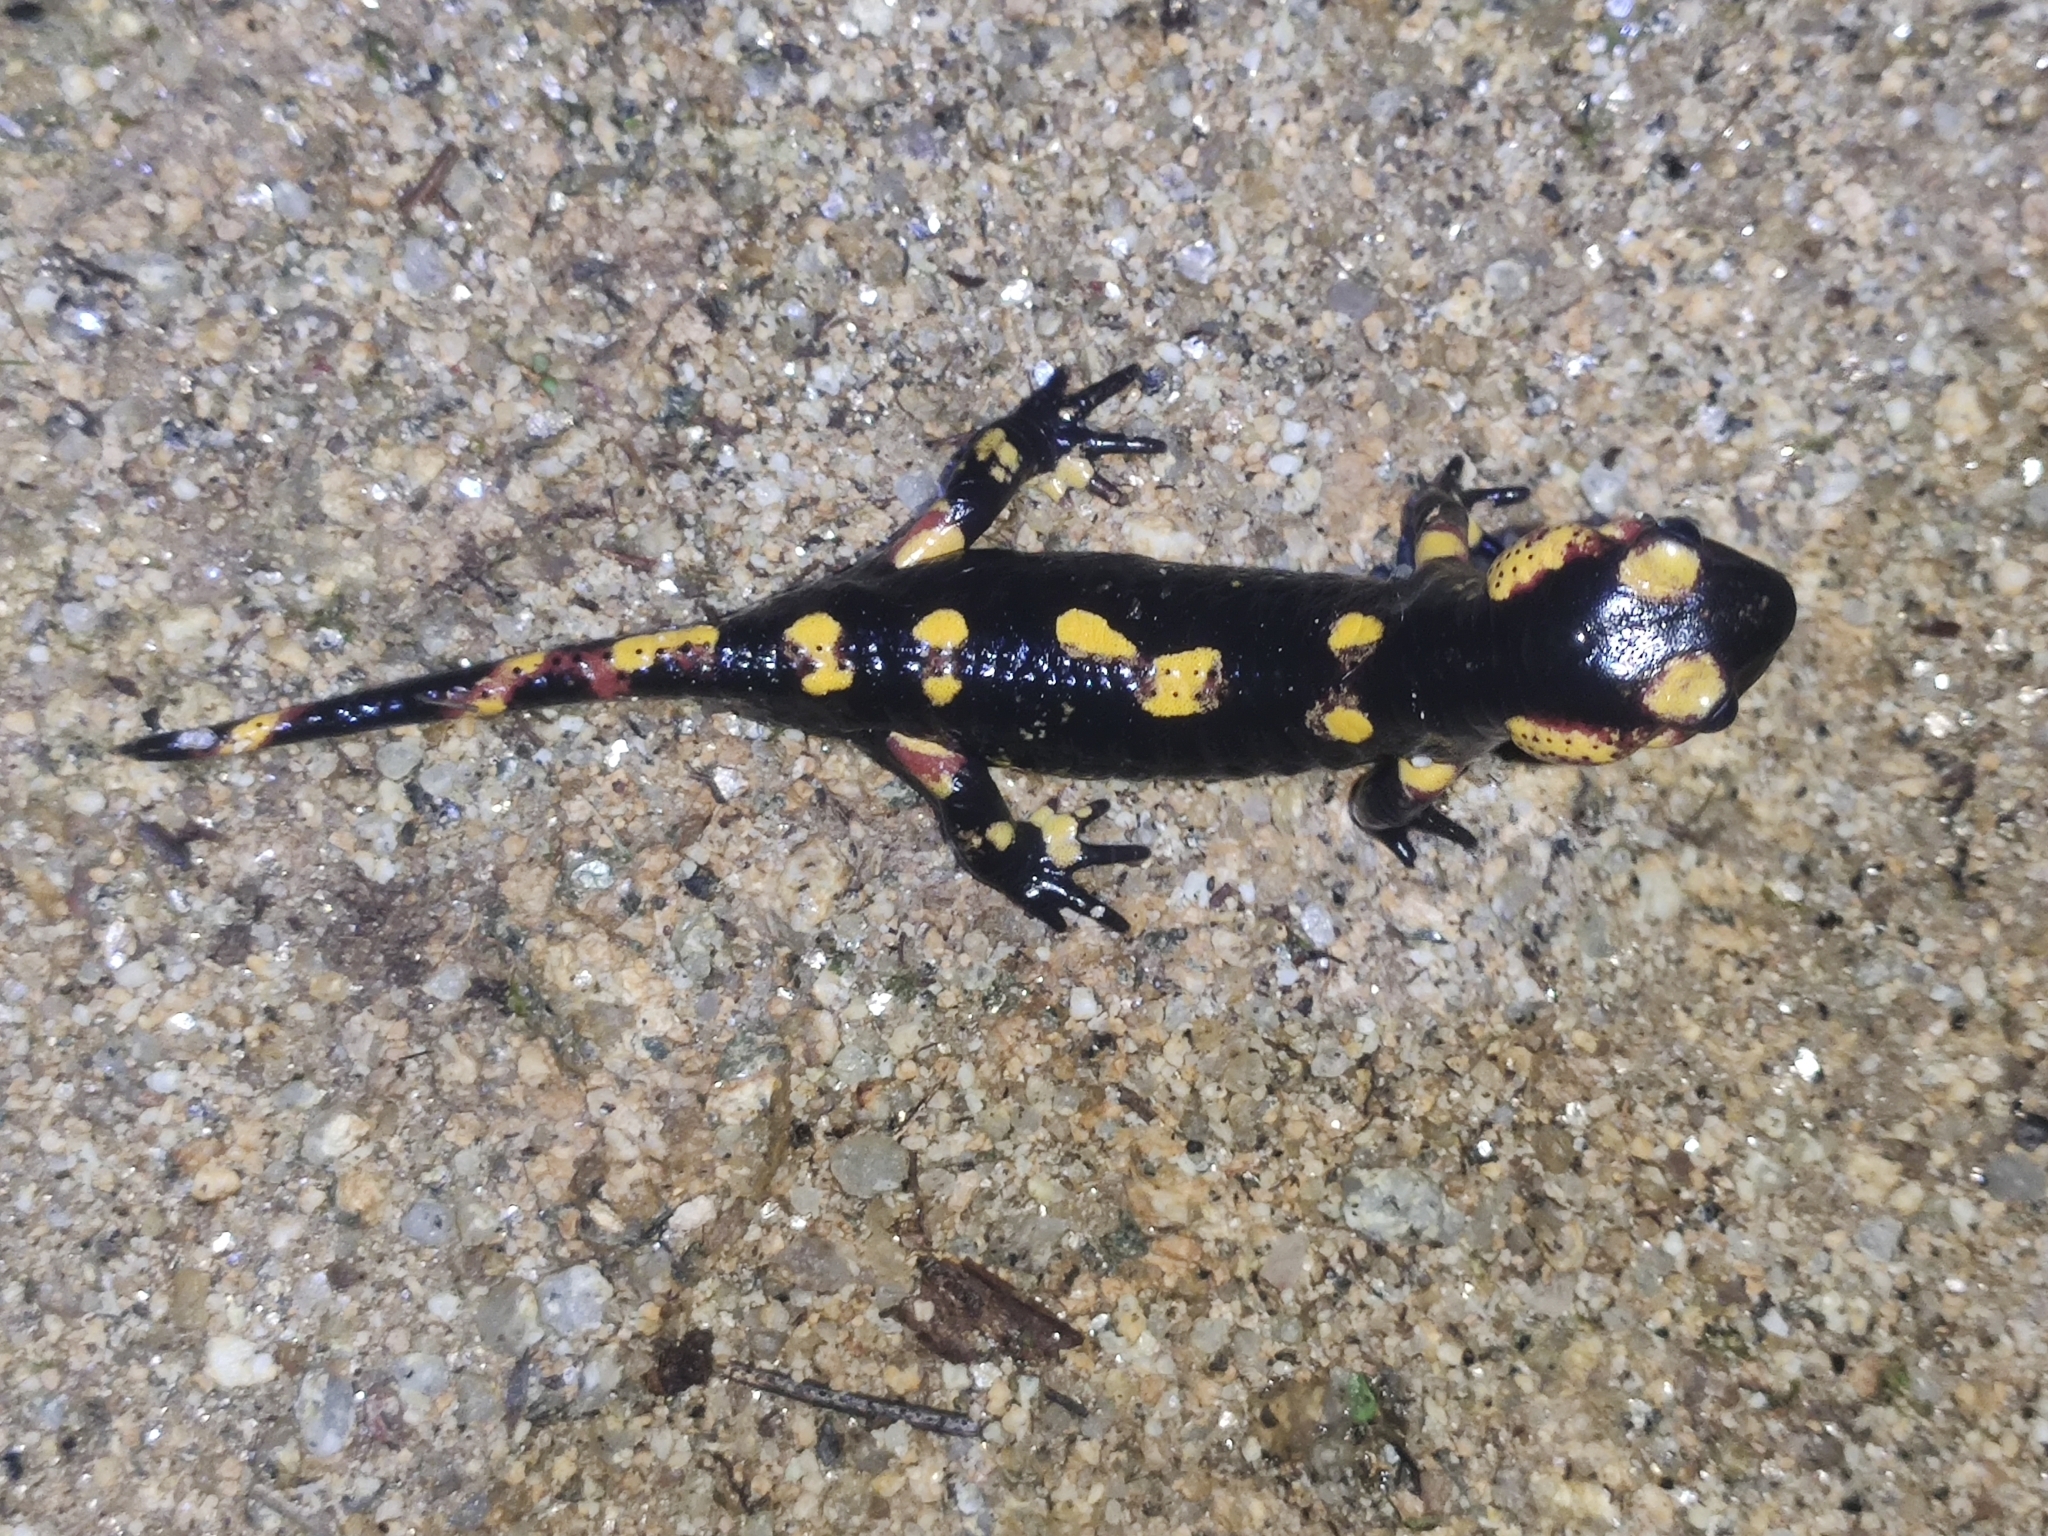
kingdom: Animalia
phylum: Chordata
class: Amphibia
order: Caudata
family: Salamandridae
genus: Salamandra
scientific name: Salamandra salamandra
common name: Fire salamander
